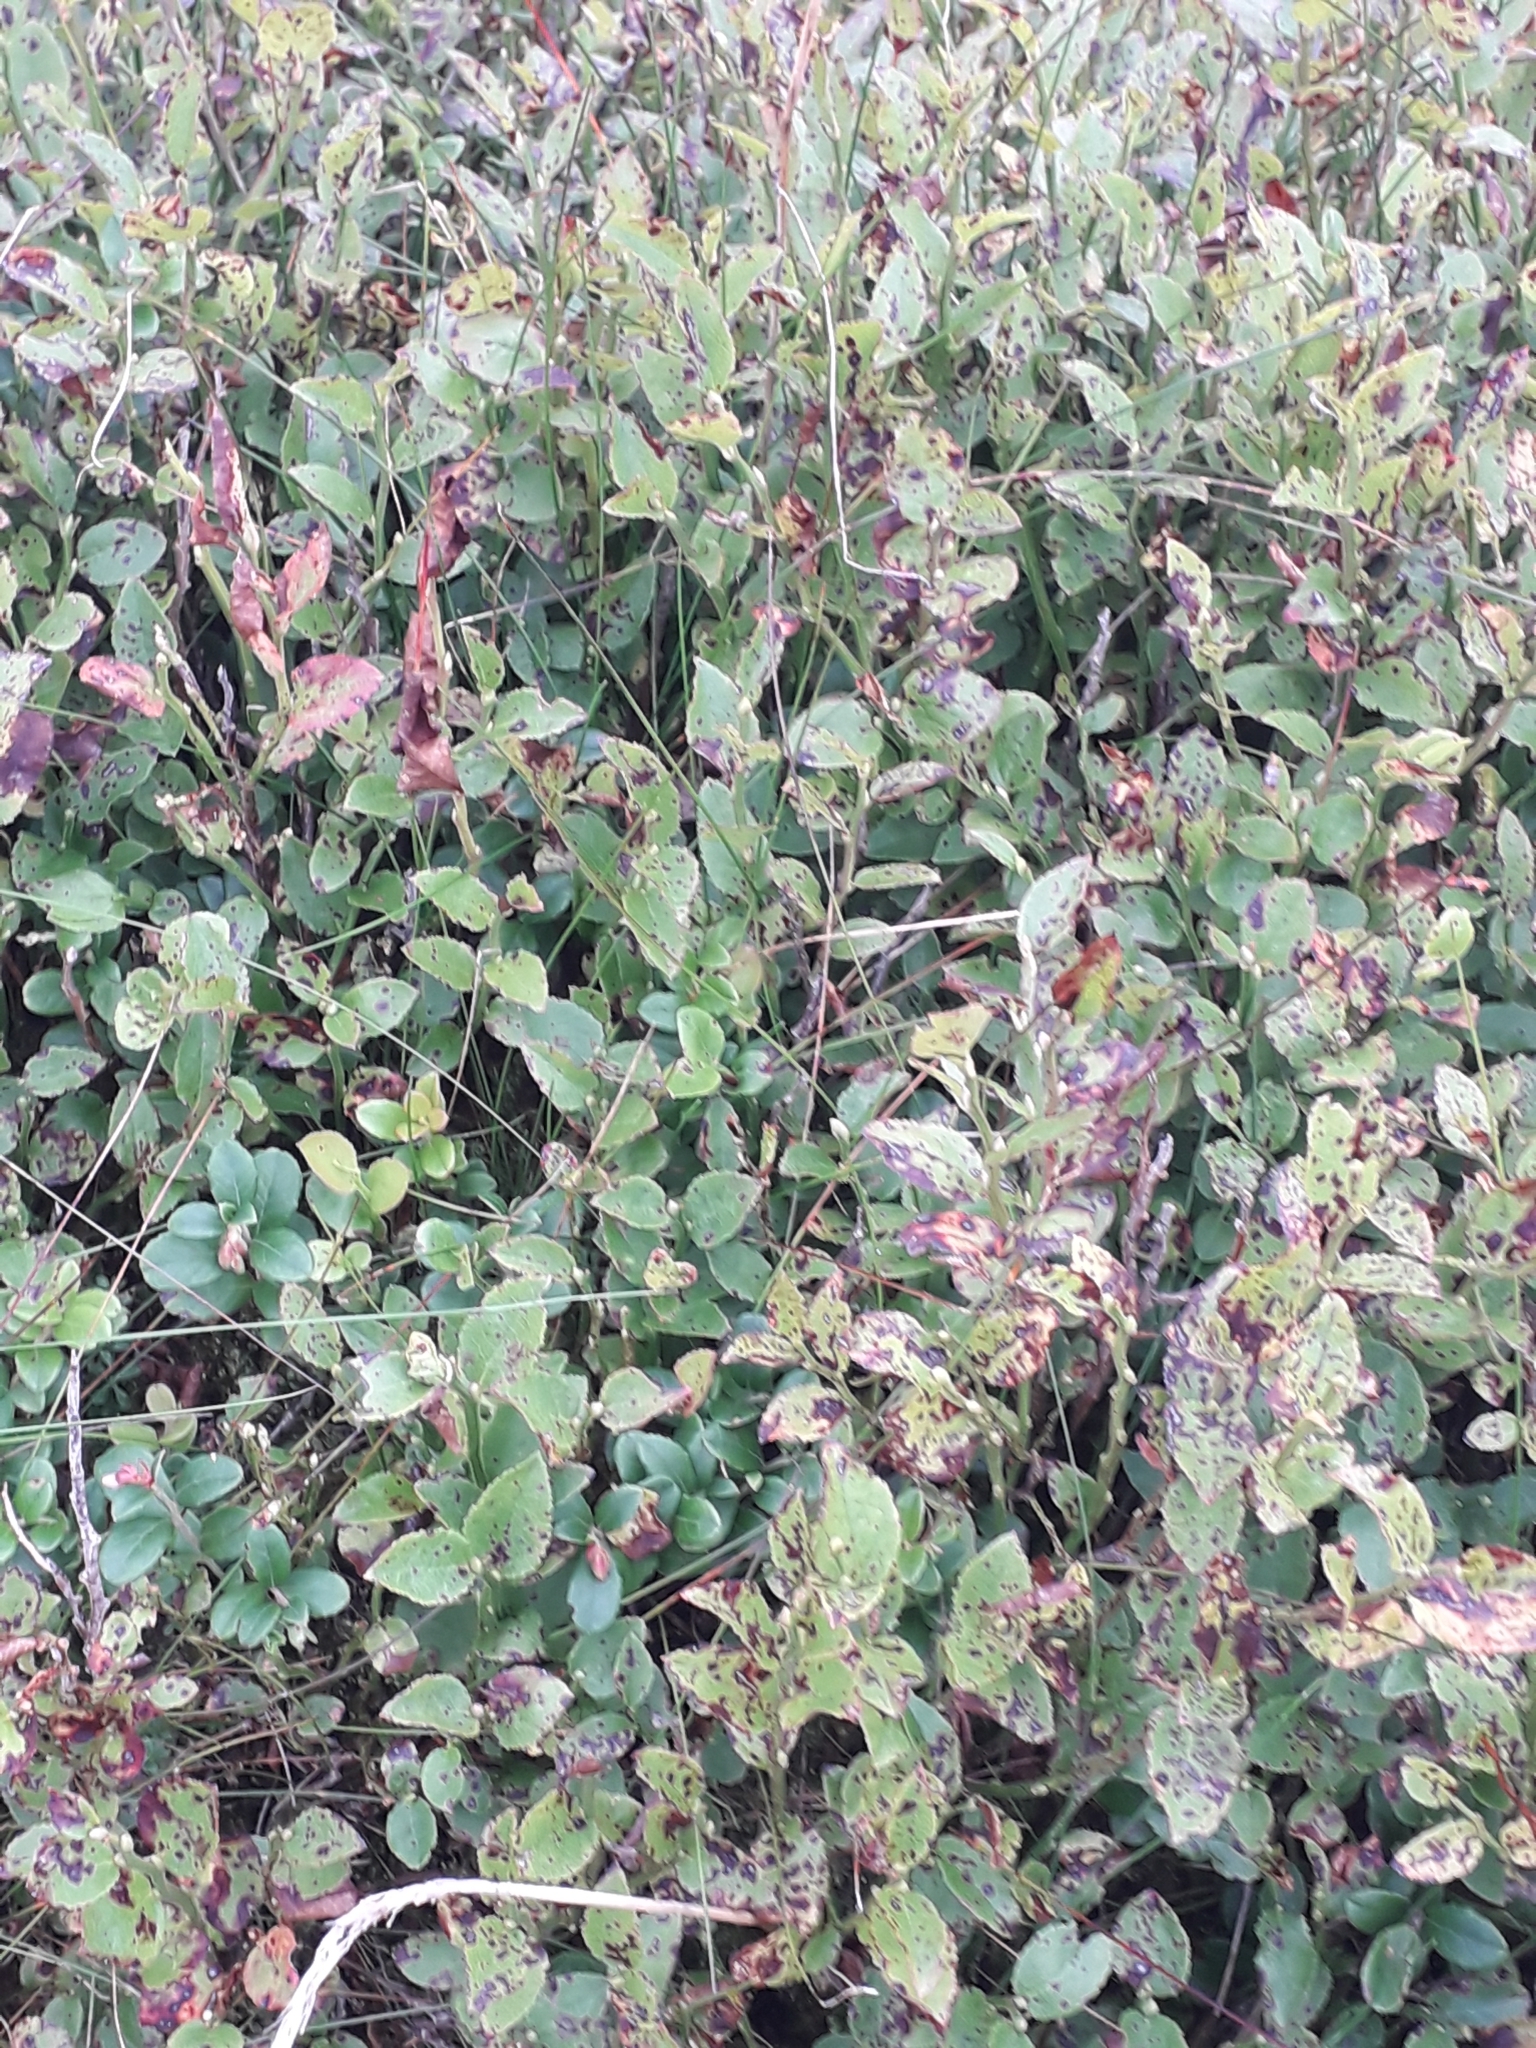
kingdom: Plantae
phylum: Tracheophyta
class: Magnoliopsida
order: Ericales
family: Ericaceae
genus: Vaccinium
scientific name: Vaccinium myrtillus
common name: Bilberry
